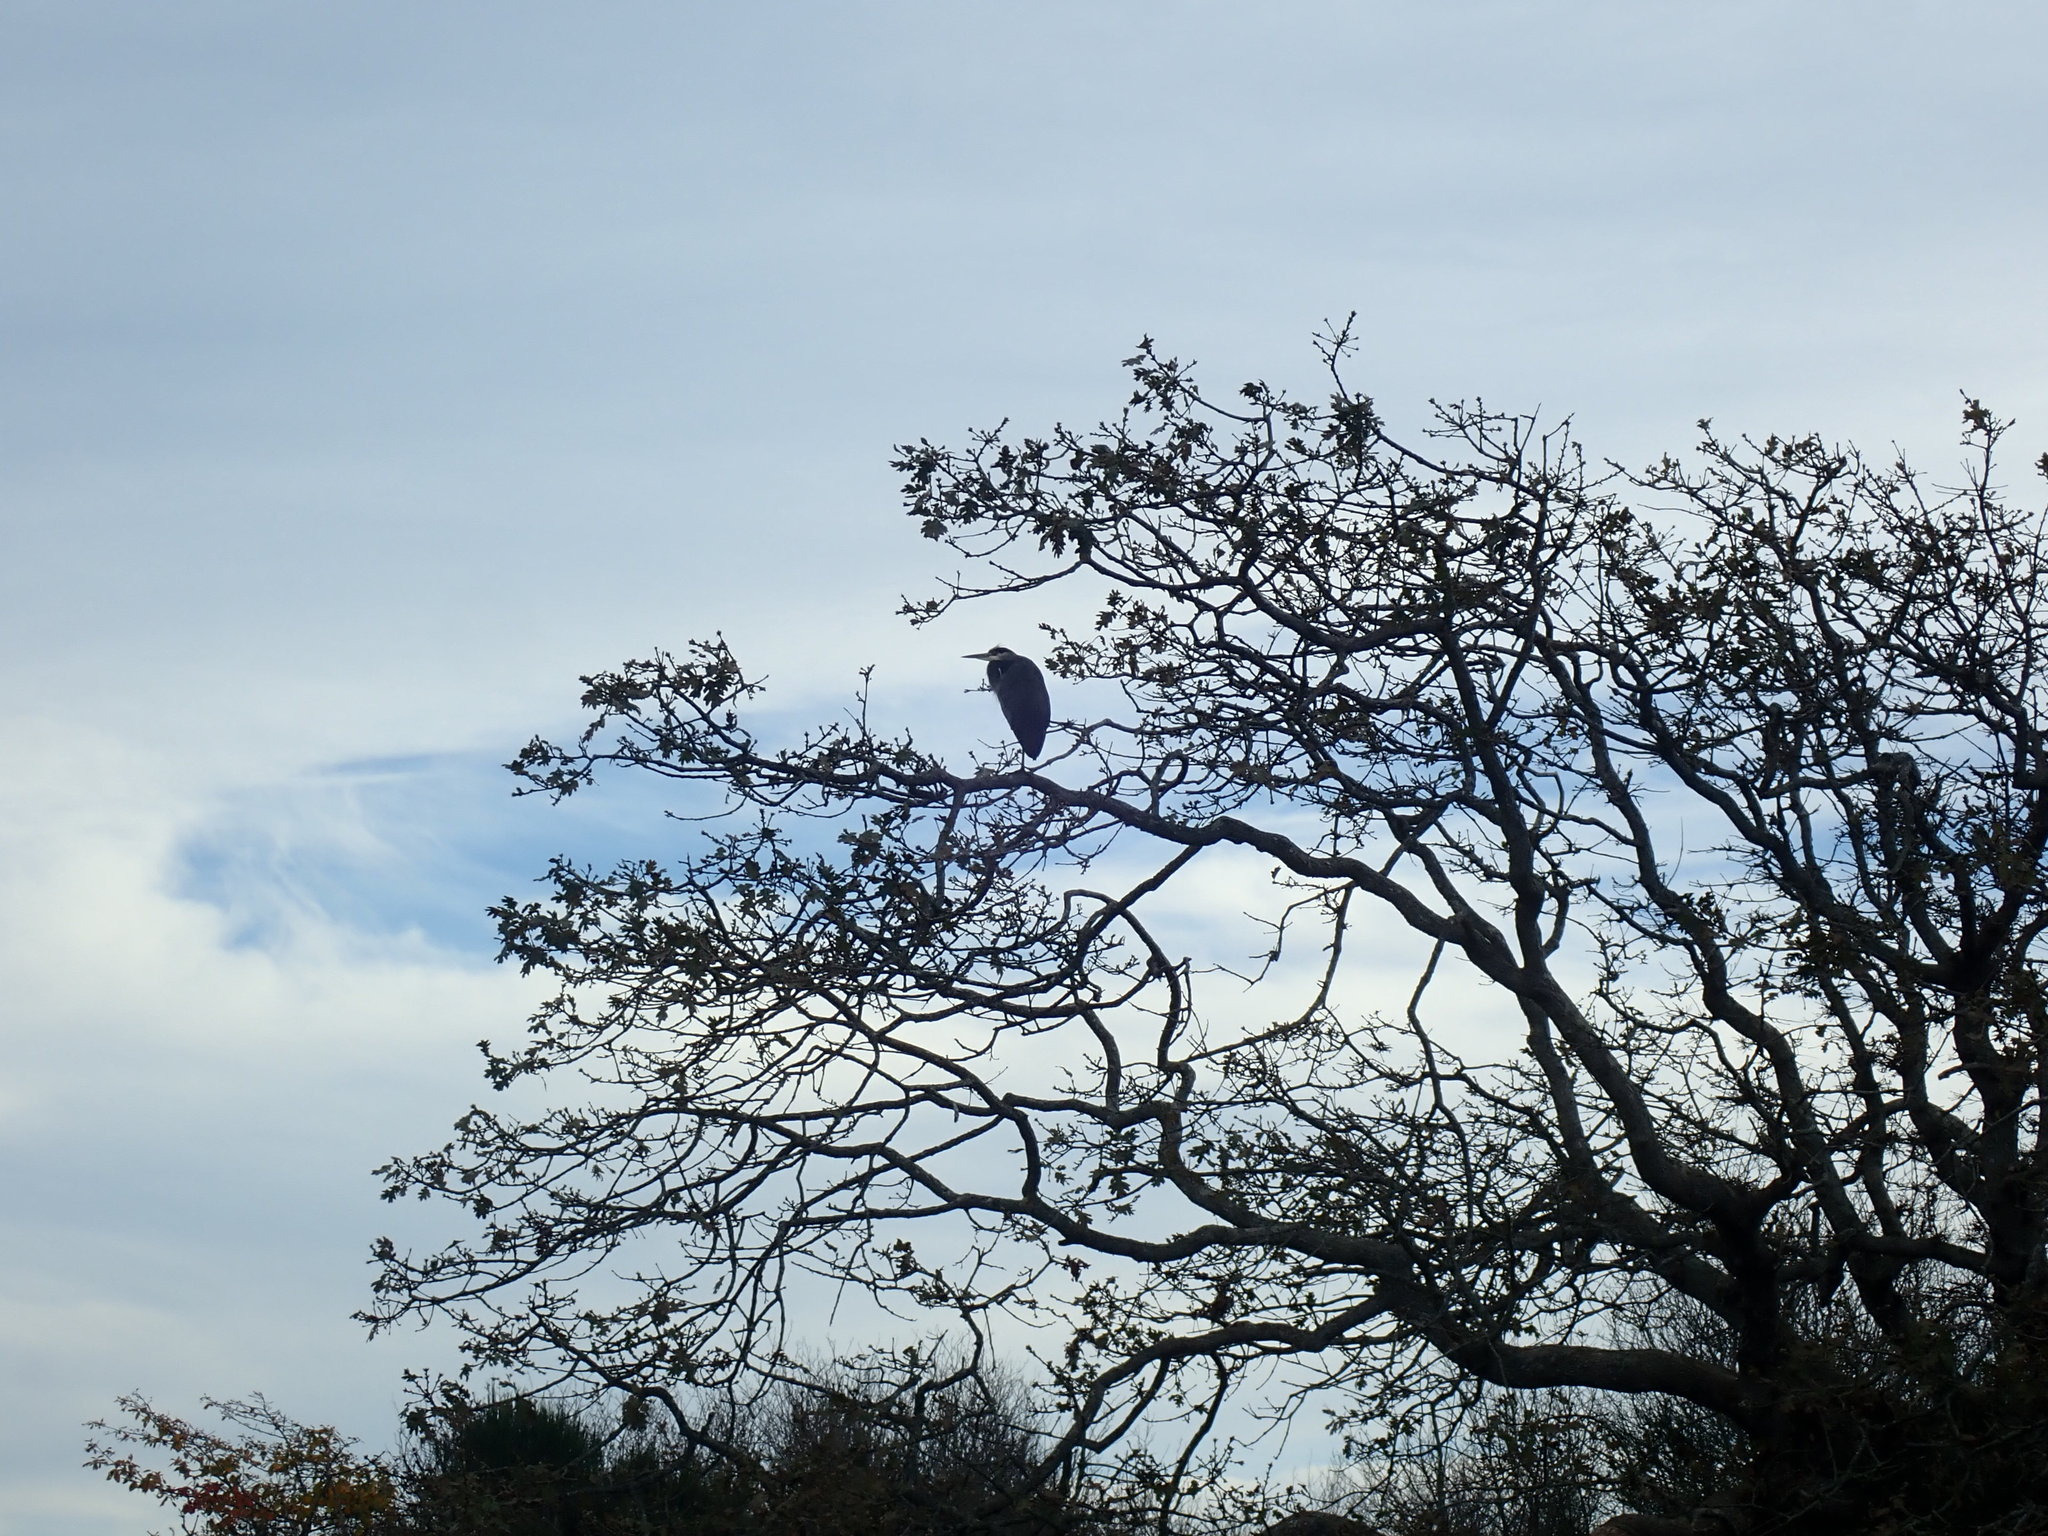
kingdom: Plantae
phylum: Tracheophyta
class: Magnoliopsida
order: Fagales
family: Fagaceae
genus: Quercus
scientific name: Quercus garryana
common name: Garry oak
